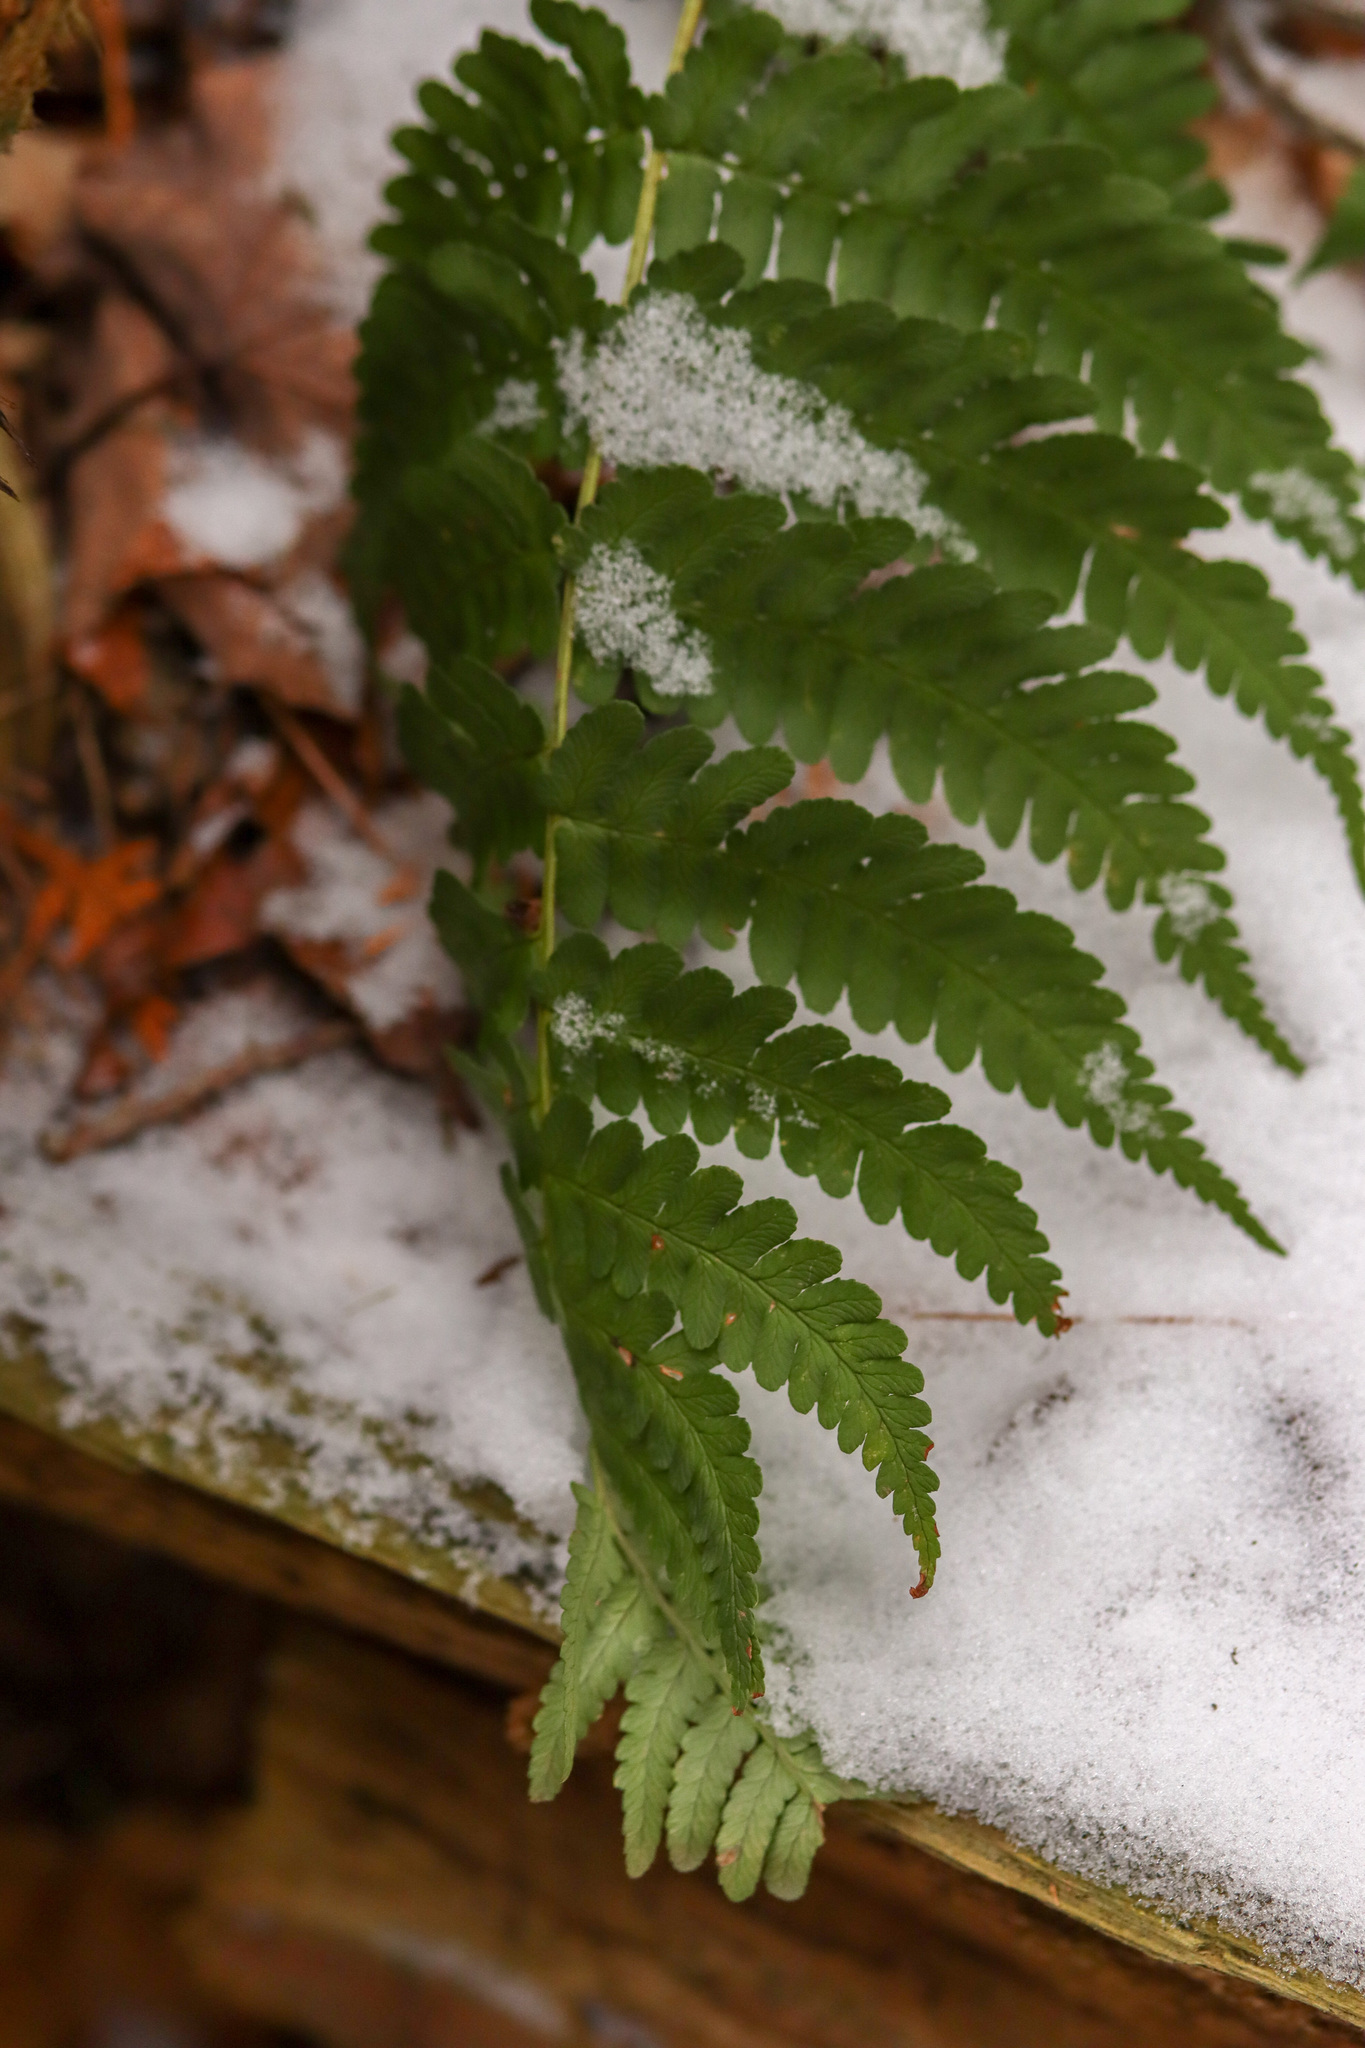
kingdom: Plantae
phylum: Tracheophyta
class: Polypodiopsida
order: Polypodiales
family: Dryopteridaceae
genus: Dryopteris
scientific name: Dryopteris marginalis
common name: Marginal wood fern
